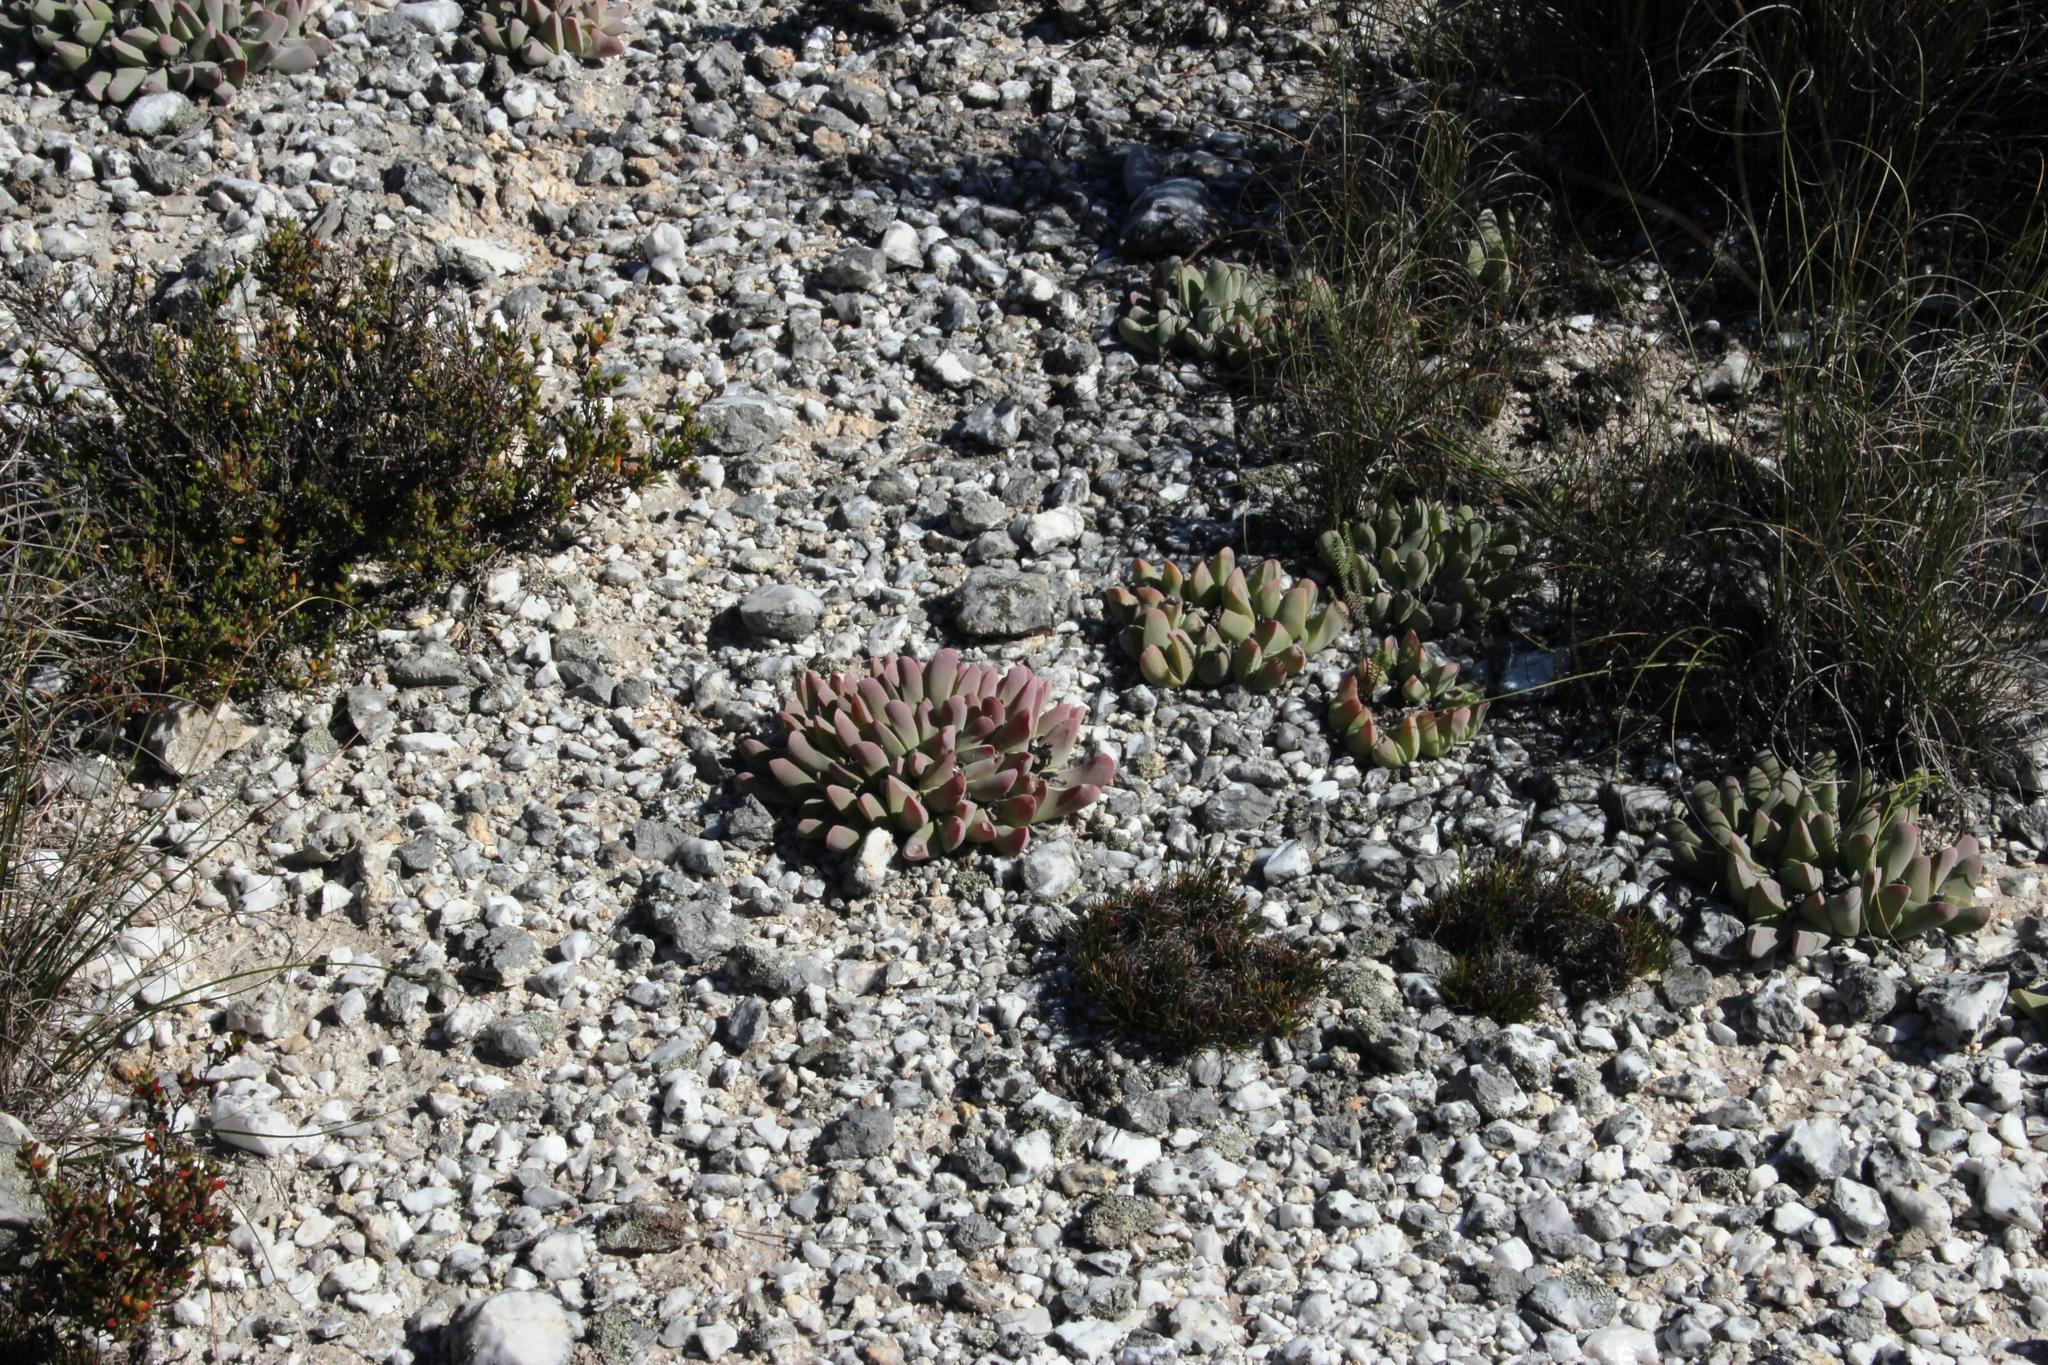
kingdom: Plantae
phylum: Tracheophyta
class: Magnoliopsida
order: Caryophyllales
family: Aizoaceae
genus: Gibbaeum
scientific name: Gibbaeum hartmannianum
